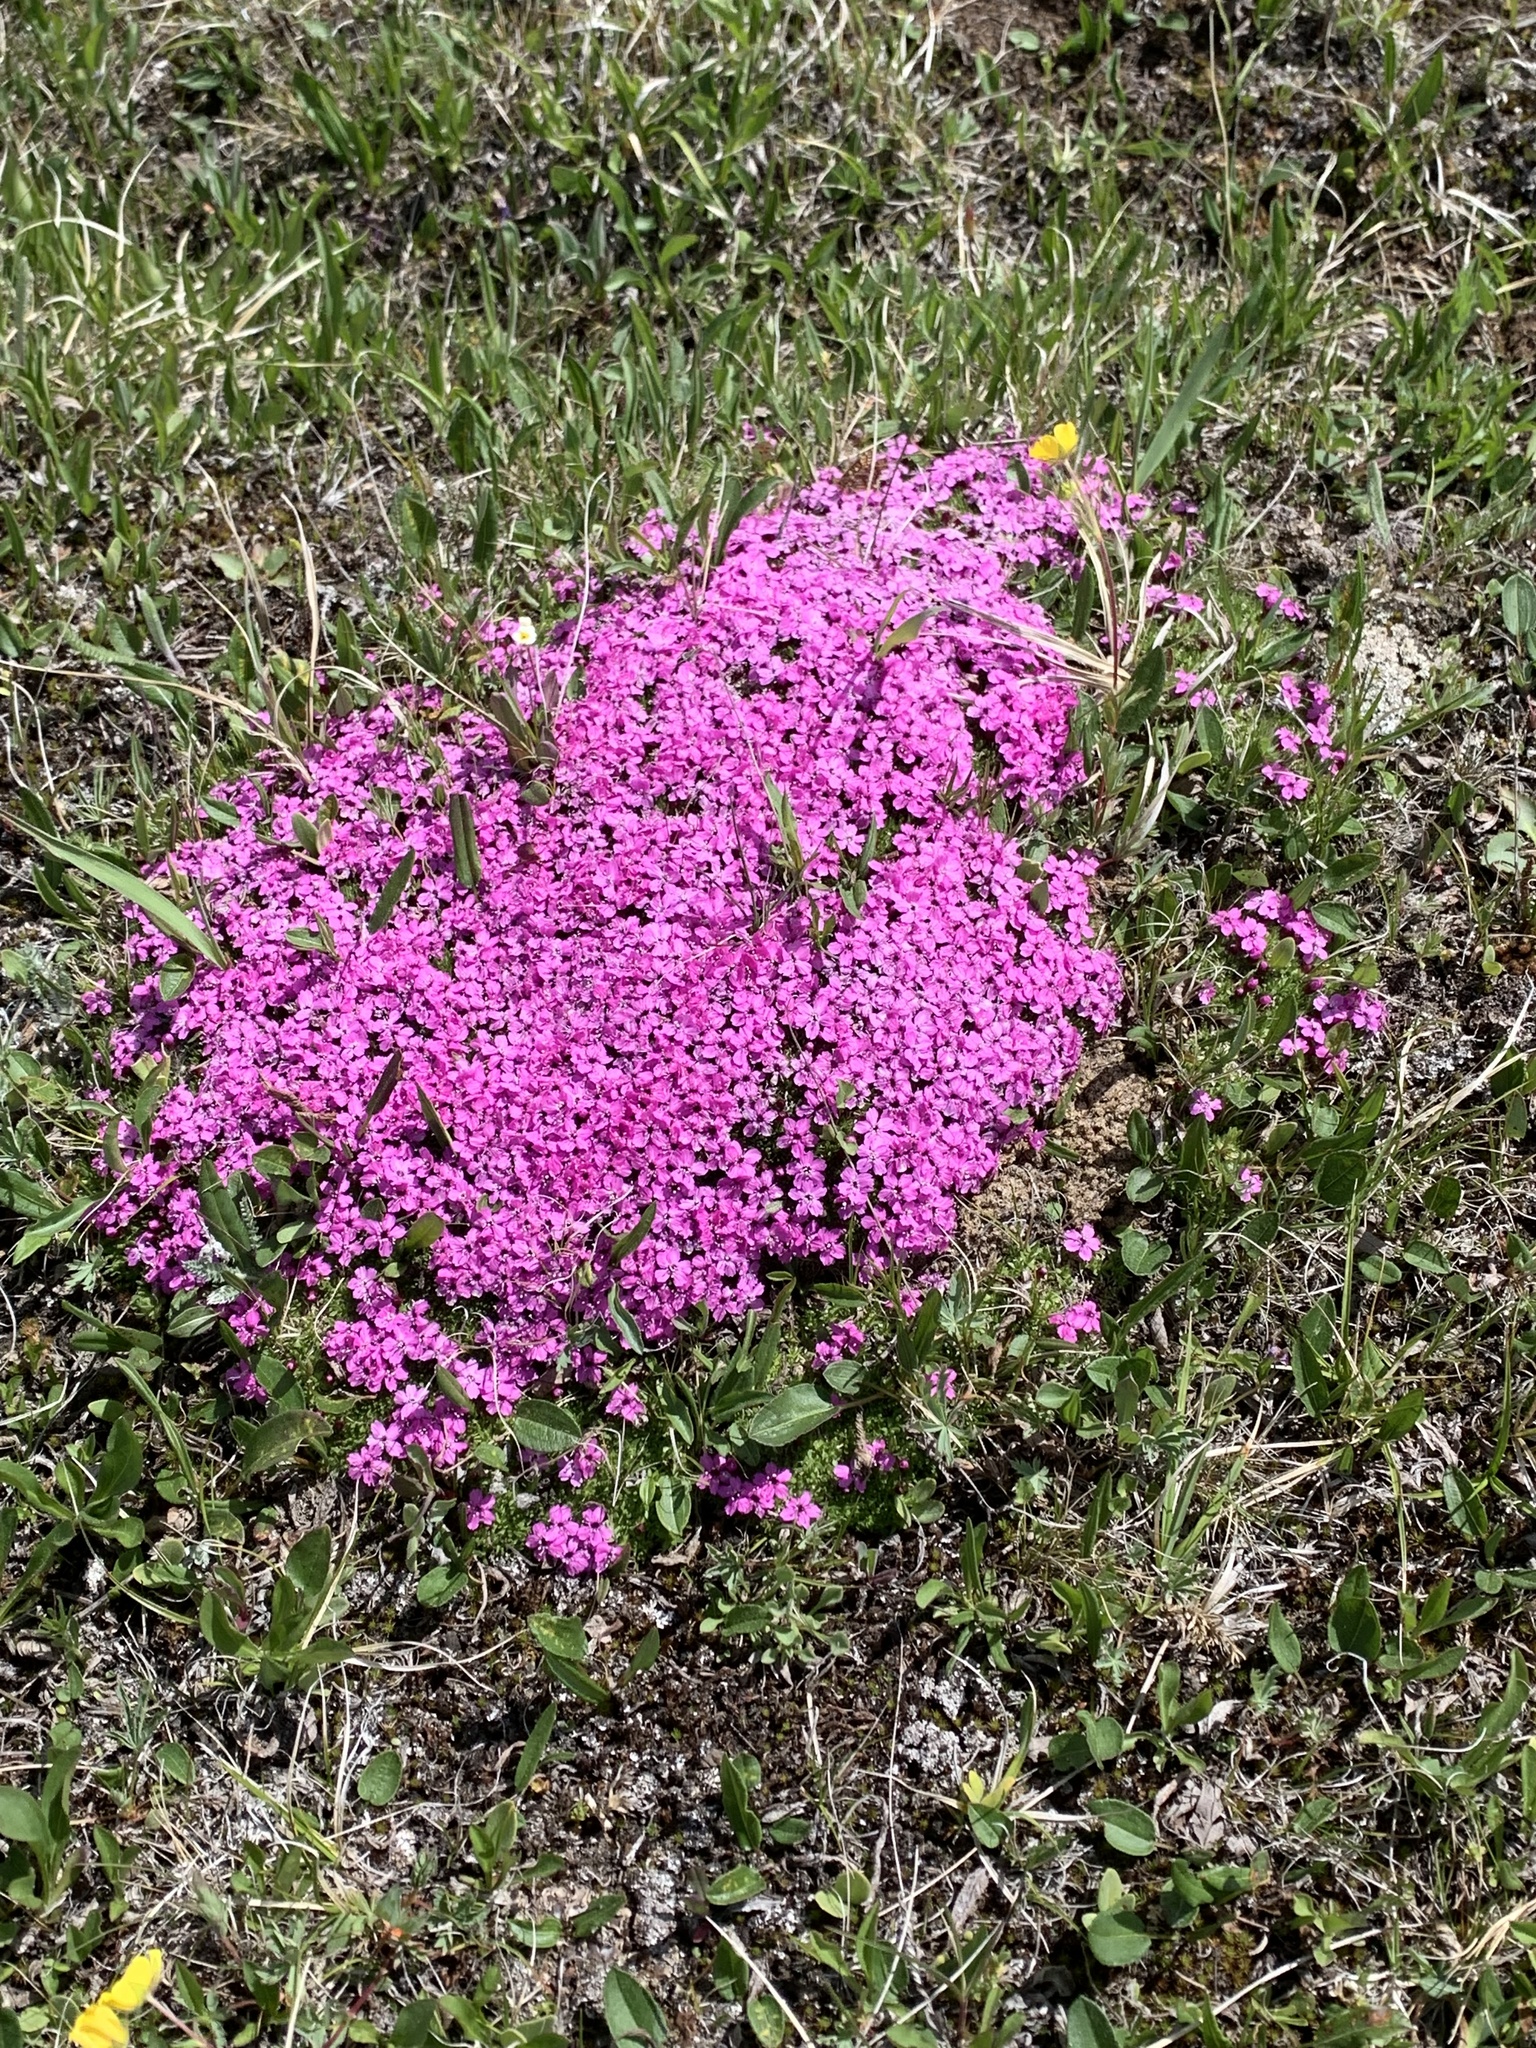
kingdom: Plantae
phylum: Tracheophyta
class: Magnoliopsida
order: Caryophyllales
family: Caryophyllaceae
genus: Silene
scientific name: Silene acaulis
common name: Moss campion
